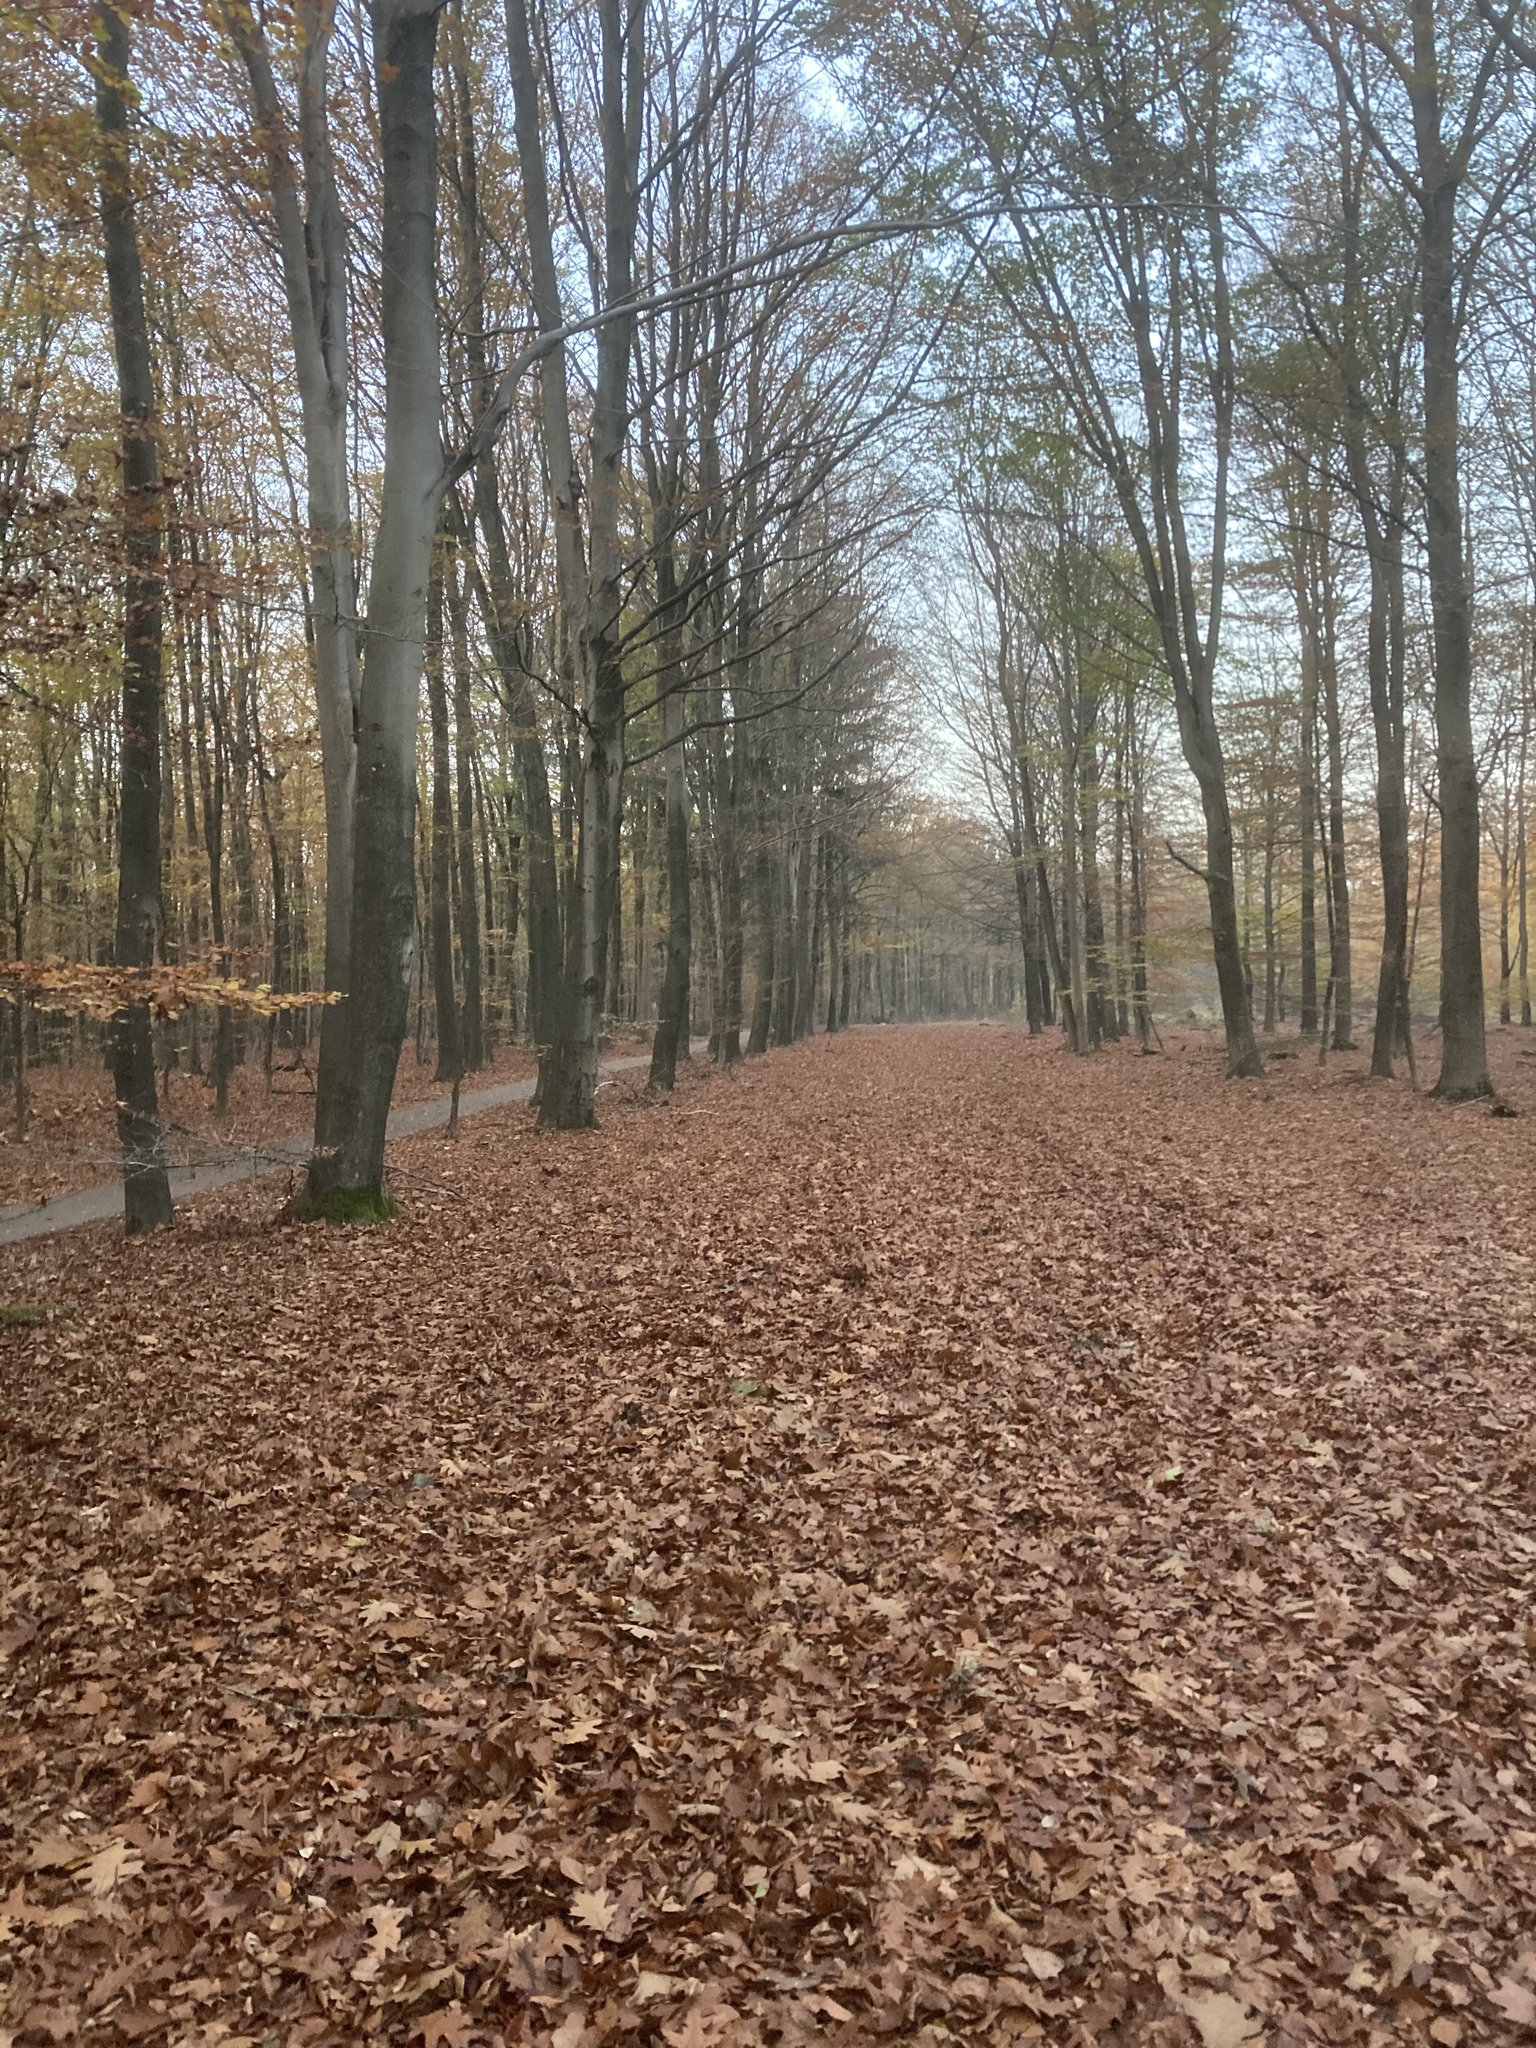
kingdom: Plantae
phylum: Tracheophyta
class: Magnoliopsida
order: Fagales
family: Fagaceae
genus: Quercus
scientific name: Quercus rubra
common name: Red oak
